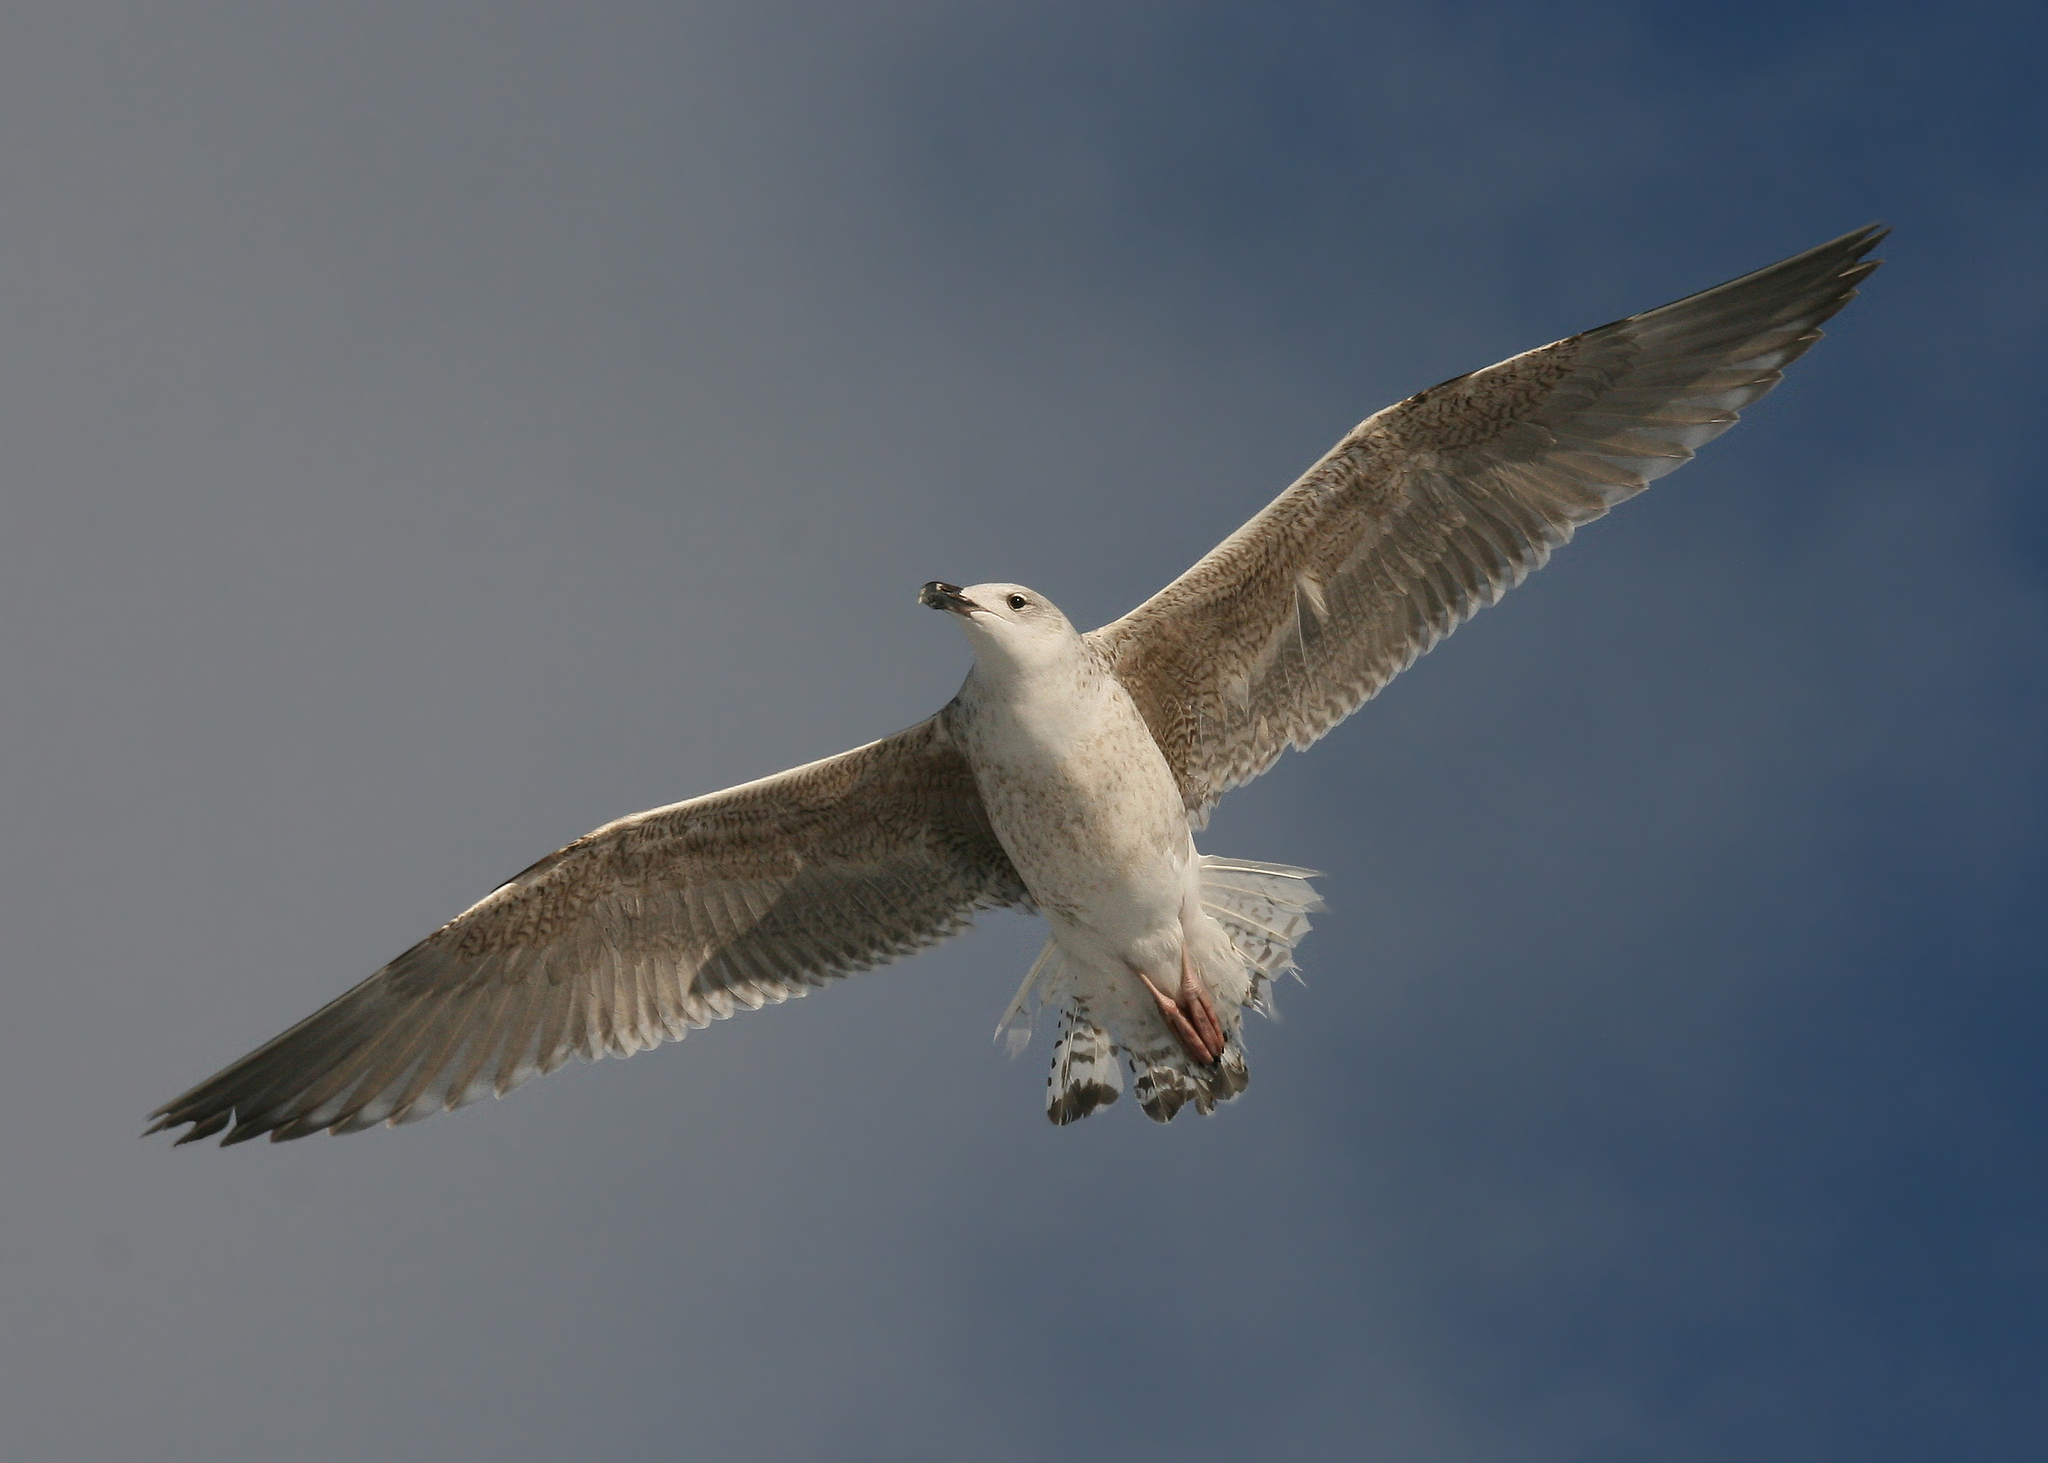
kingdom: Animalia
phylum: Chordata
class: Aves
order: Charadriiformes
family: Laridae
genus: Larus
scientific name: Larus marinus
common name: Great black-backed gull
